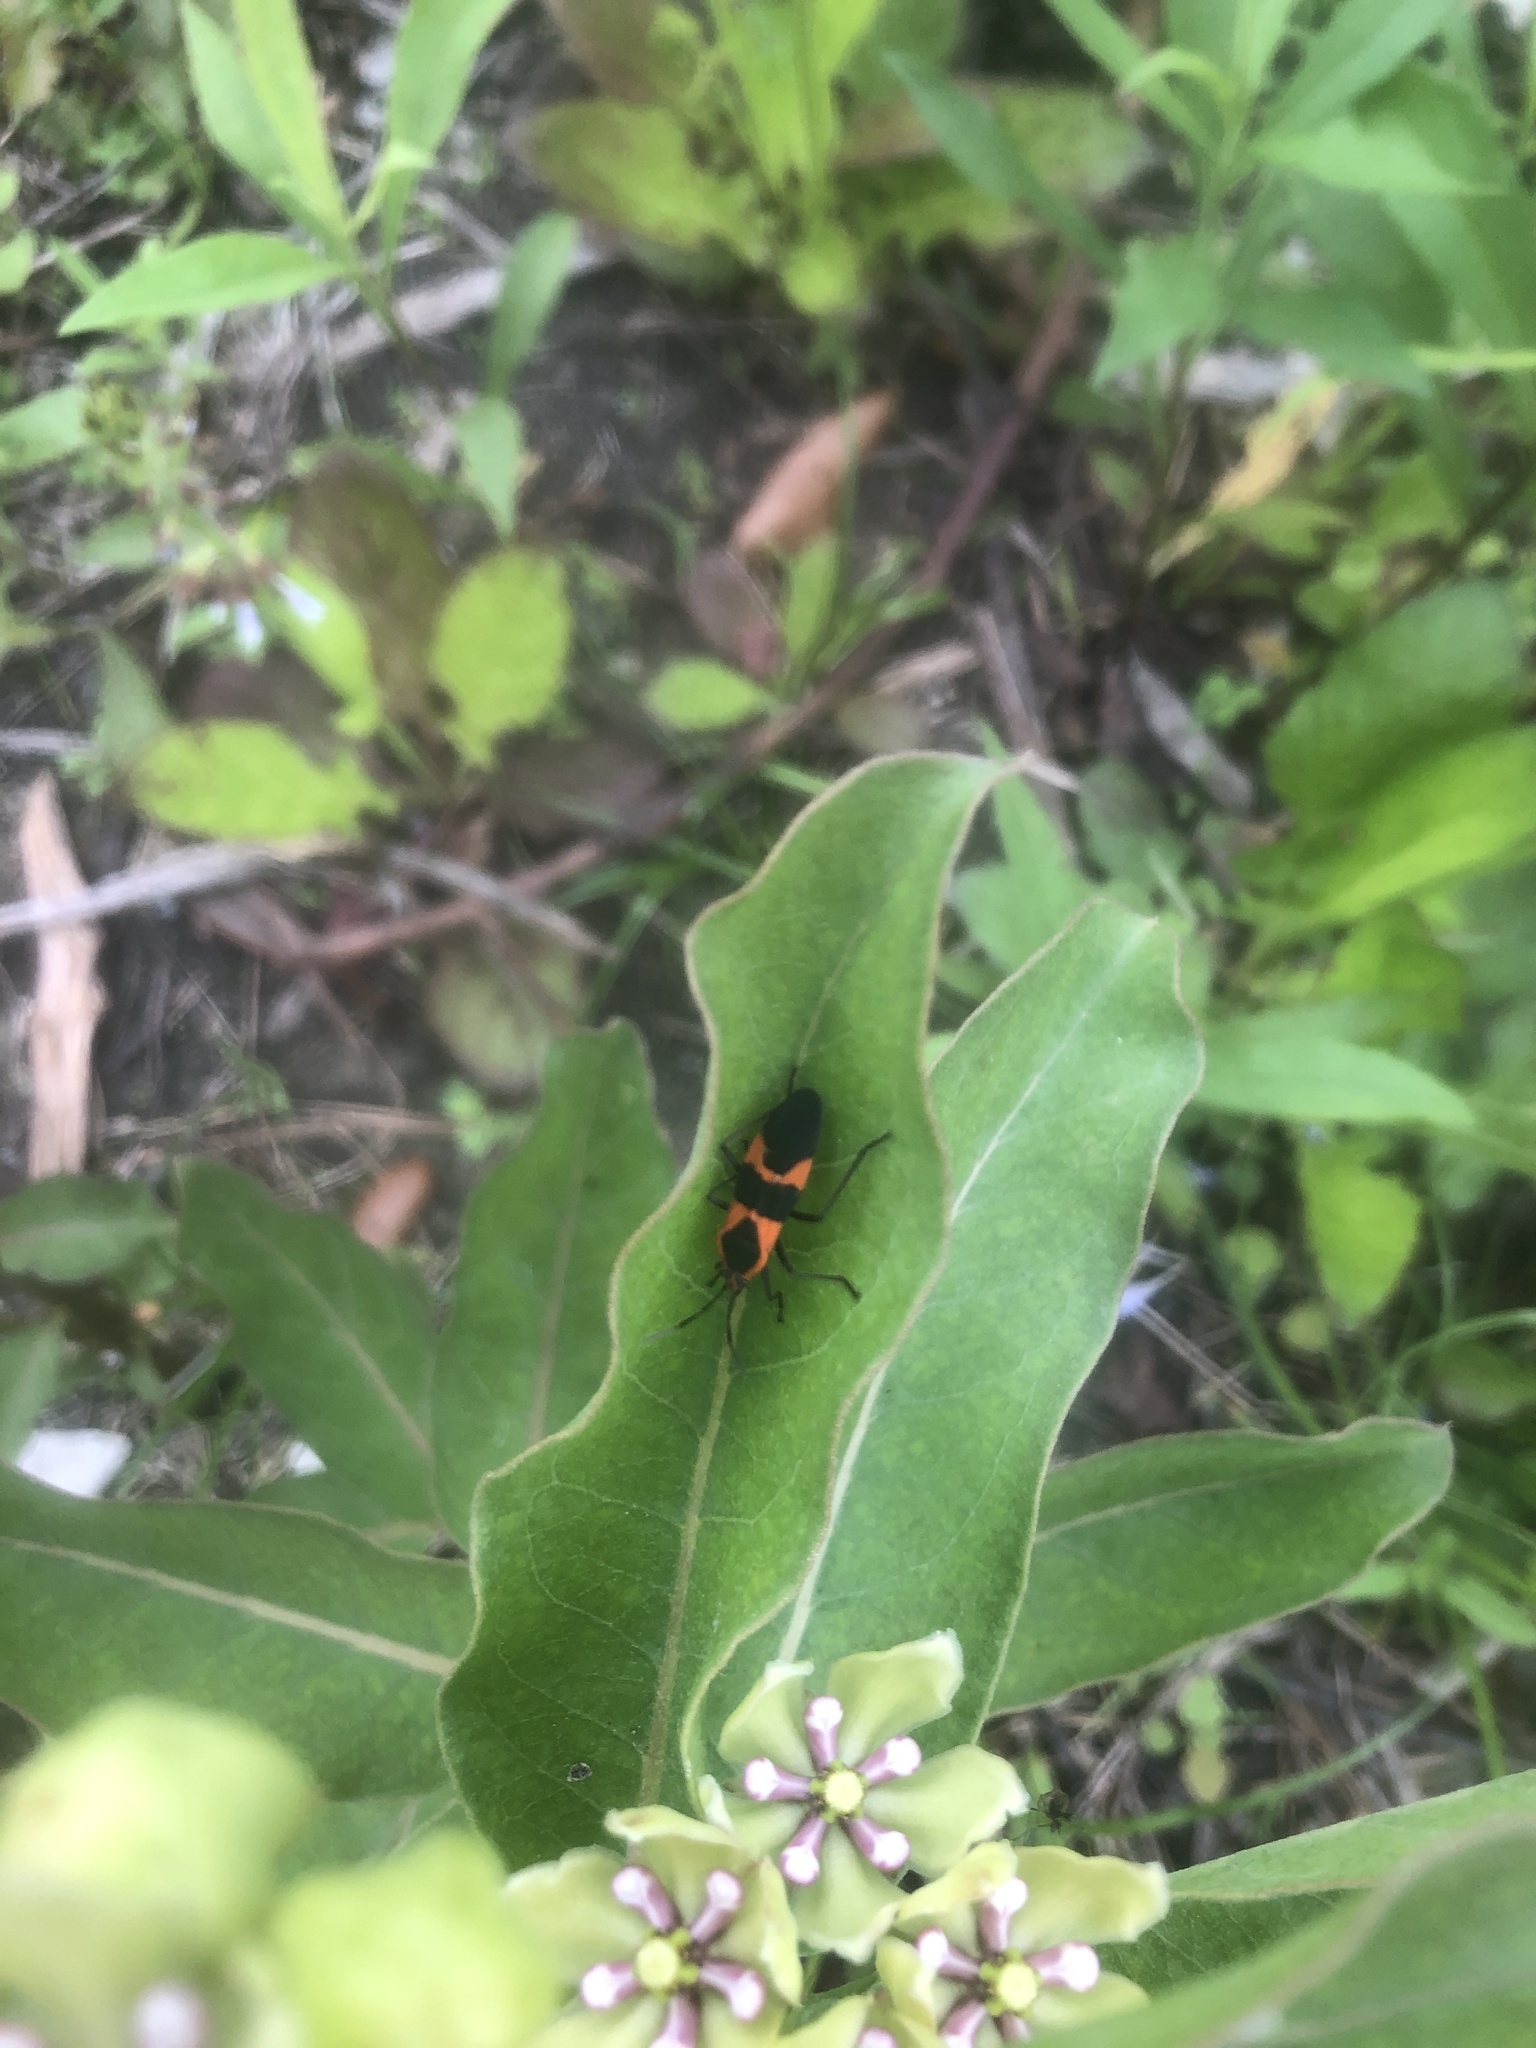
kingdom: Animalia
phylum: Arthropoda
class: Insecta
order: Hemiptera
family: Lygaeidae
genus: Oncopeltus
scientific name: Oncopeltus fasciatus
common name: Large milkweed bug
